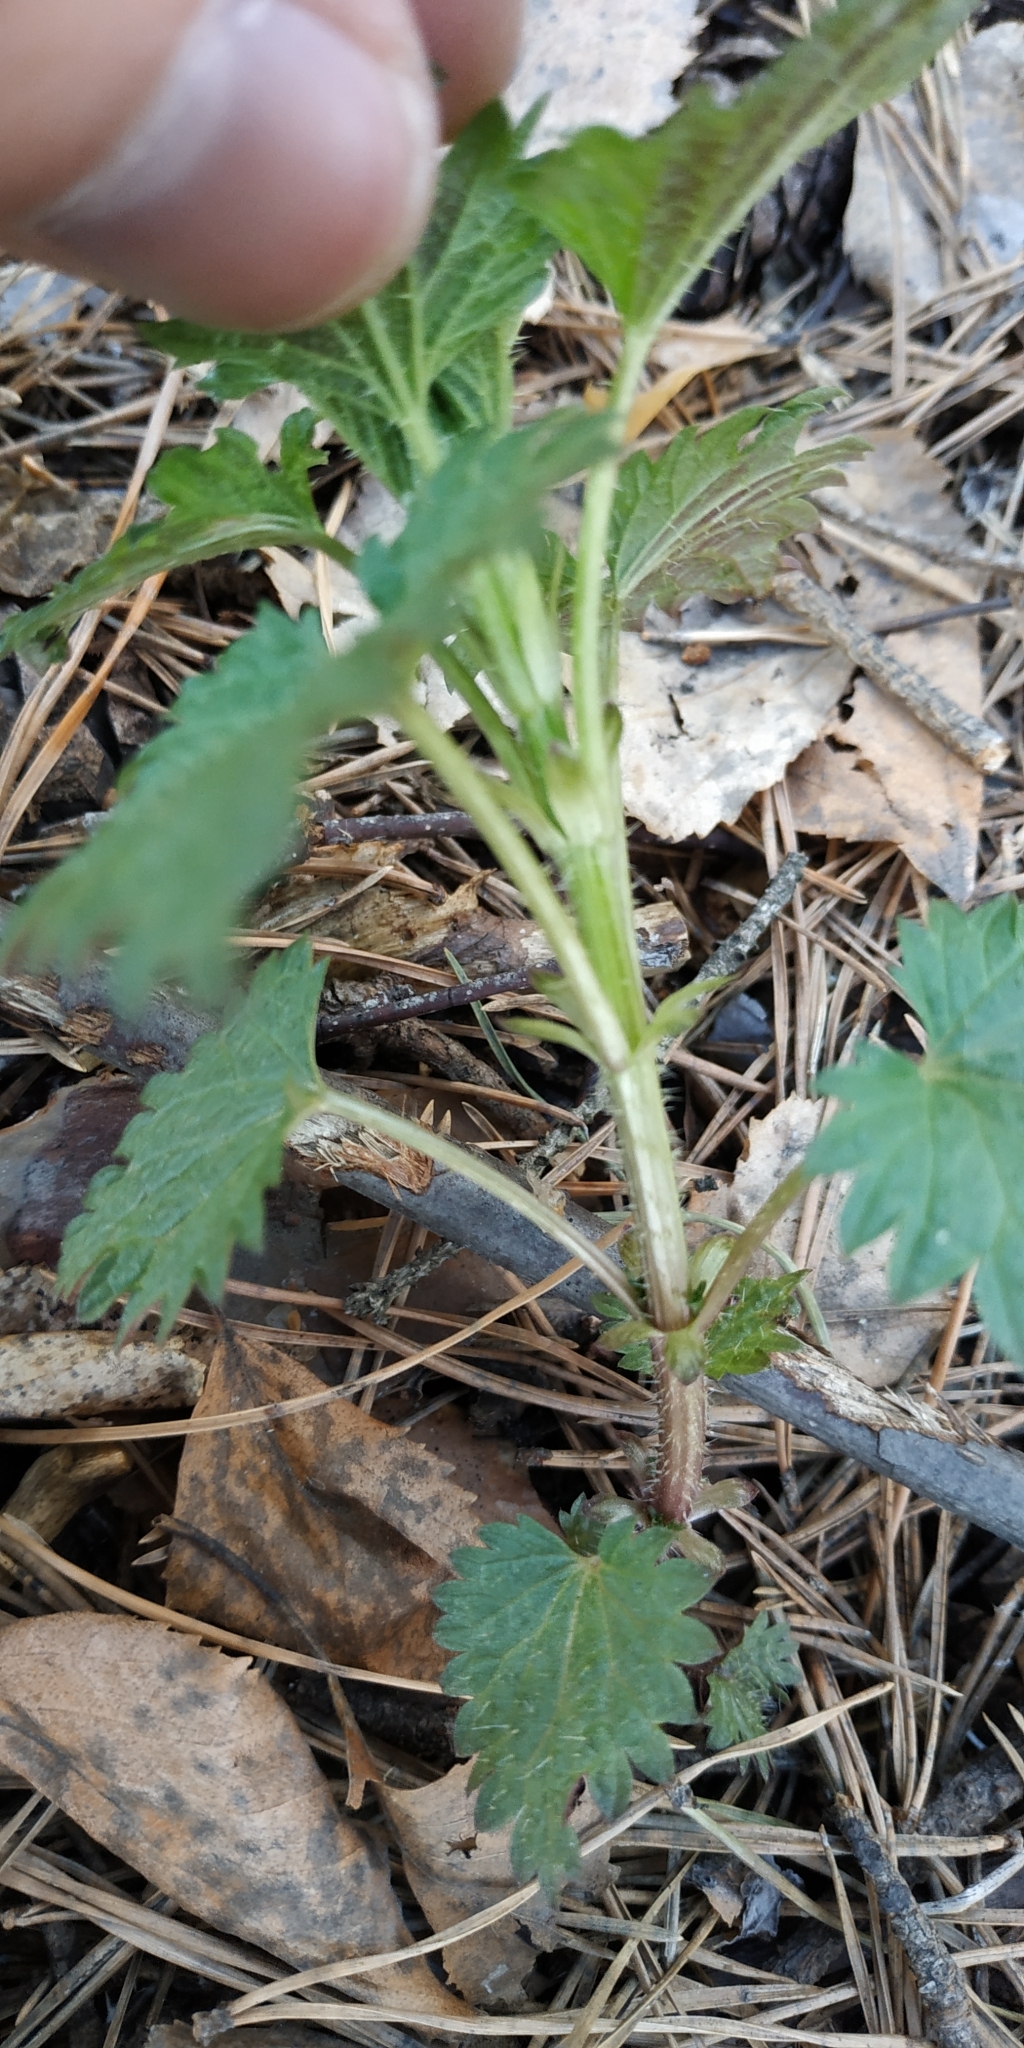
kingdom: Plantae
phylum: Tracheophyta
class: Magnoliopsida
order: Rosales
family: Urticaceae
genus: Urtica
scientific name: Urtica dioica
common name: Common nettle
